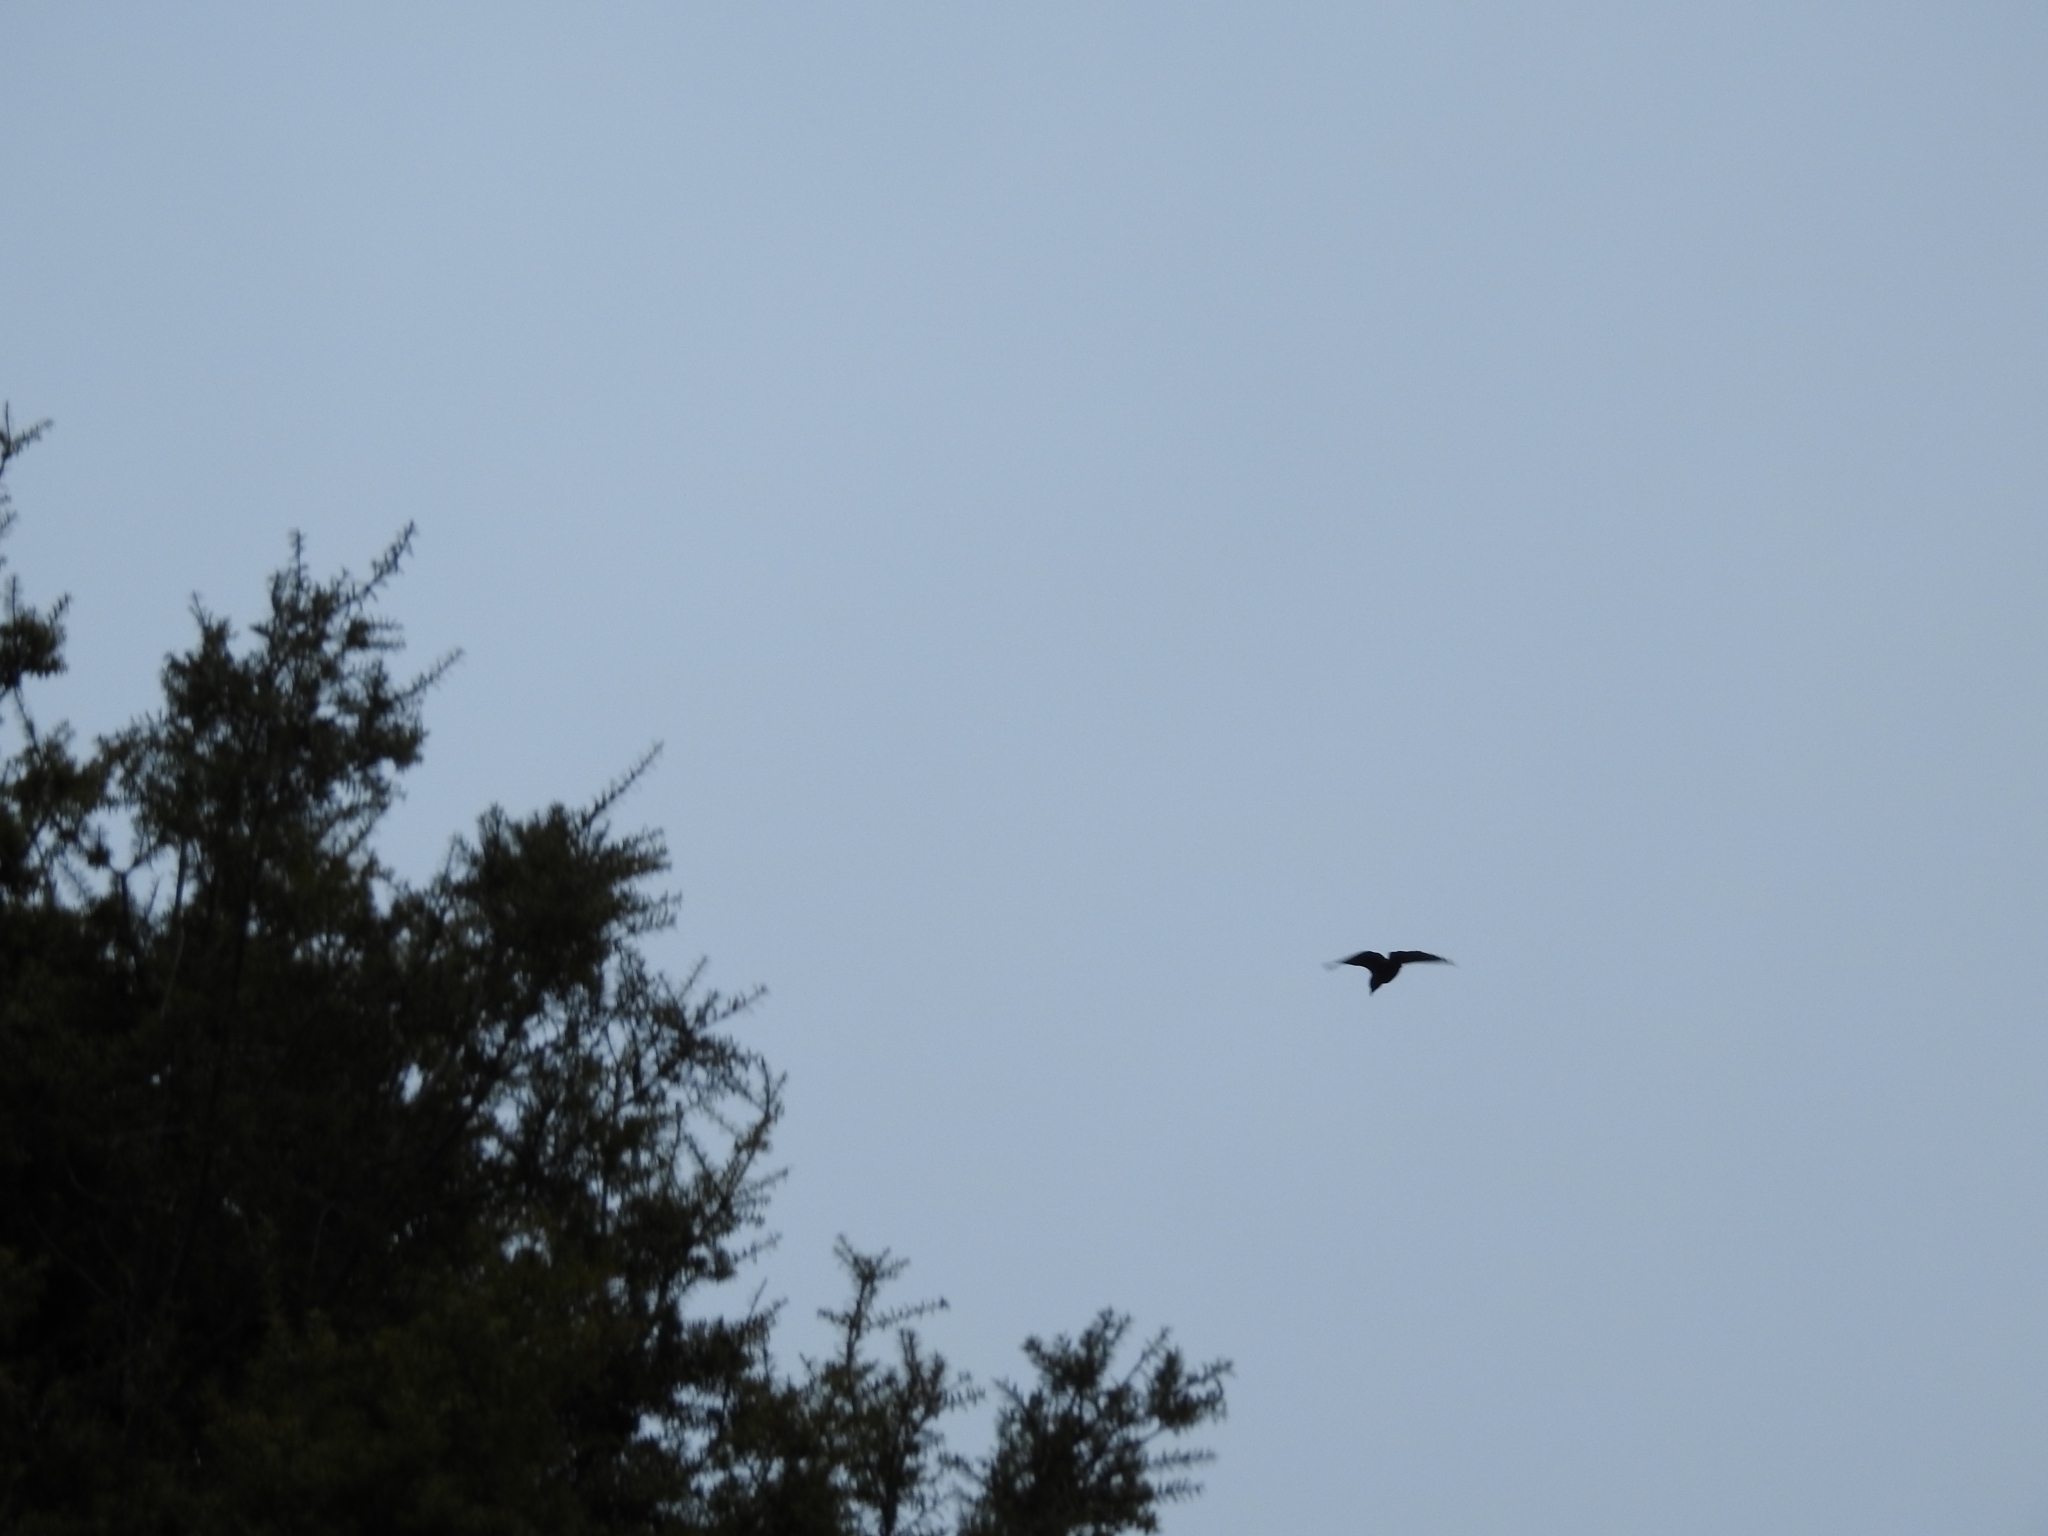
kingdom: Animalia
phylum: Chordata
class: Aves
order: Psittaciformes
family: Psittacidae
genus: Nestor
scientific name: Nestor meridionalis
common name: New zealand kaka
